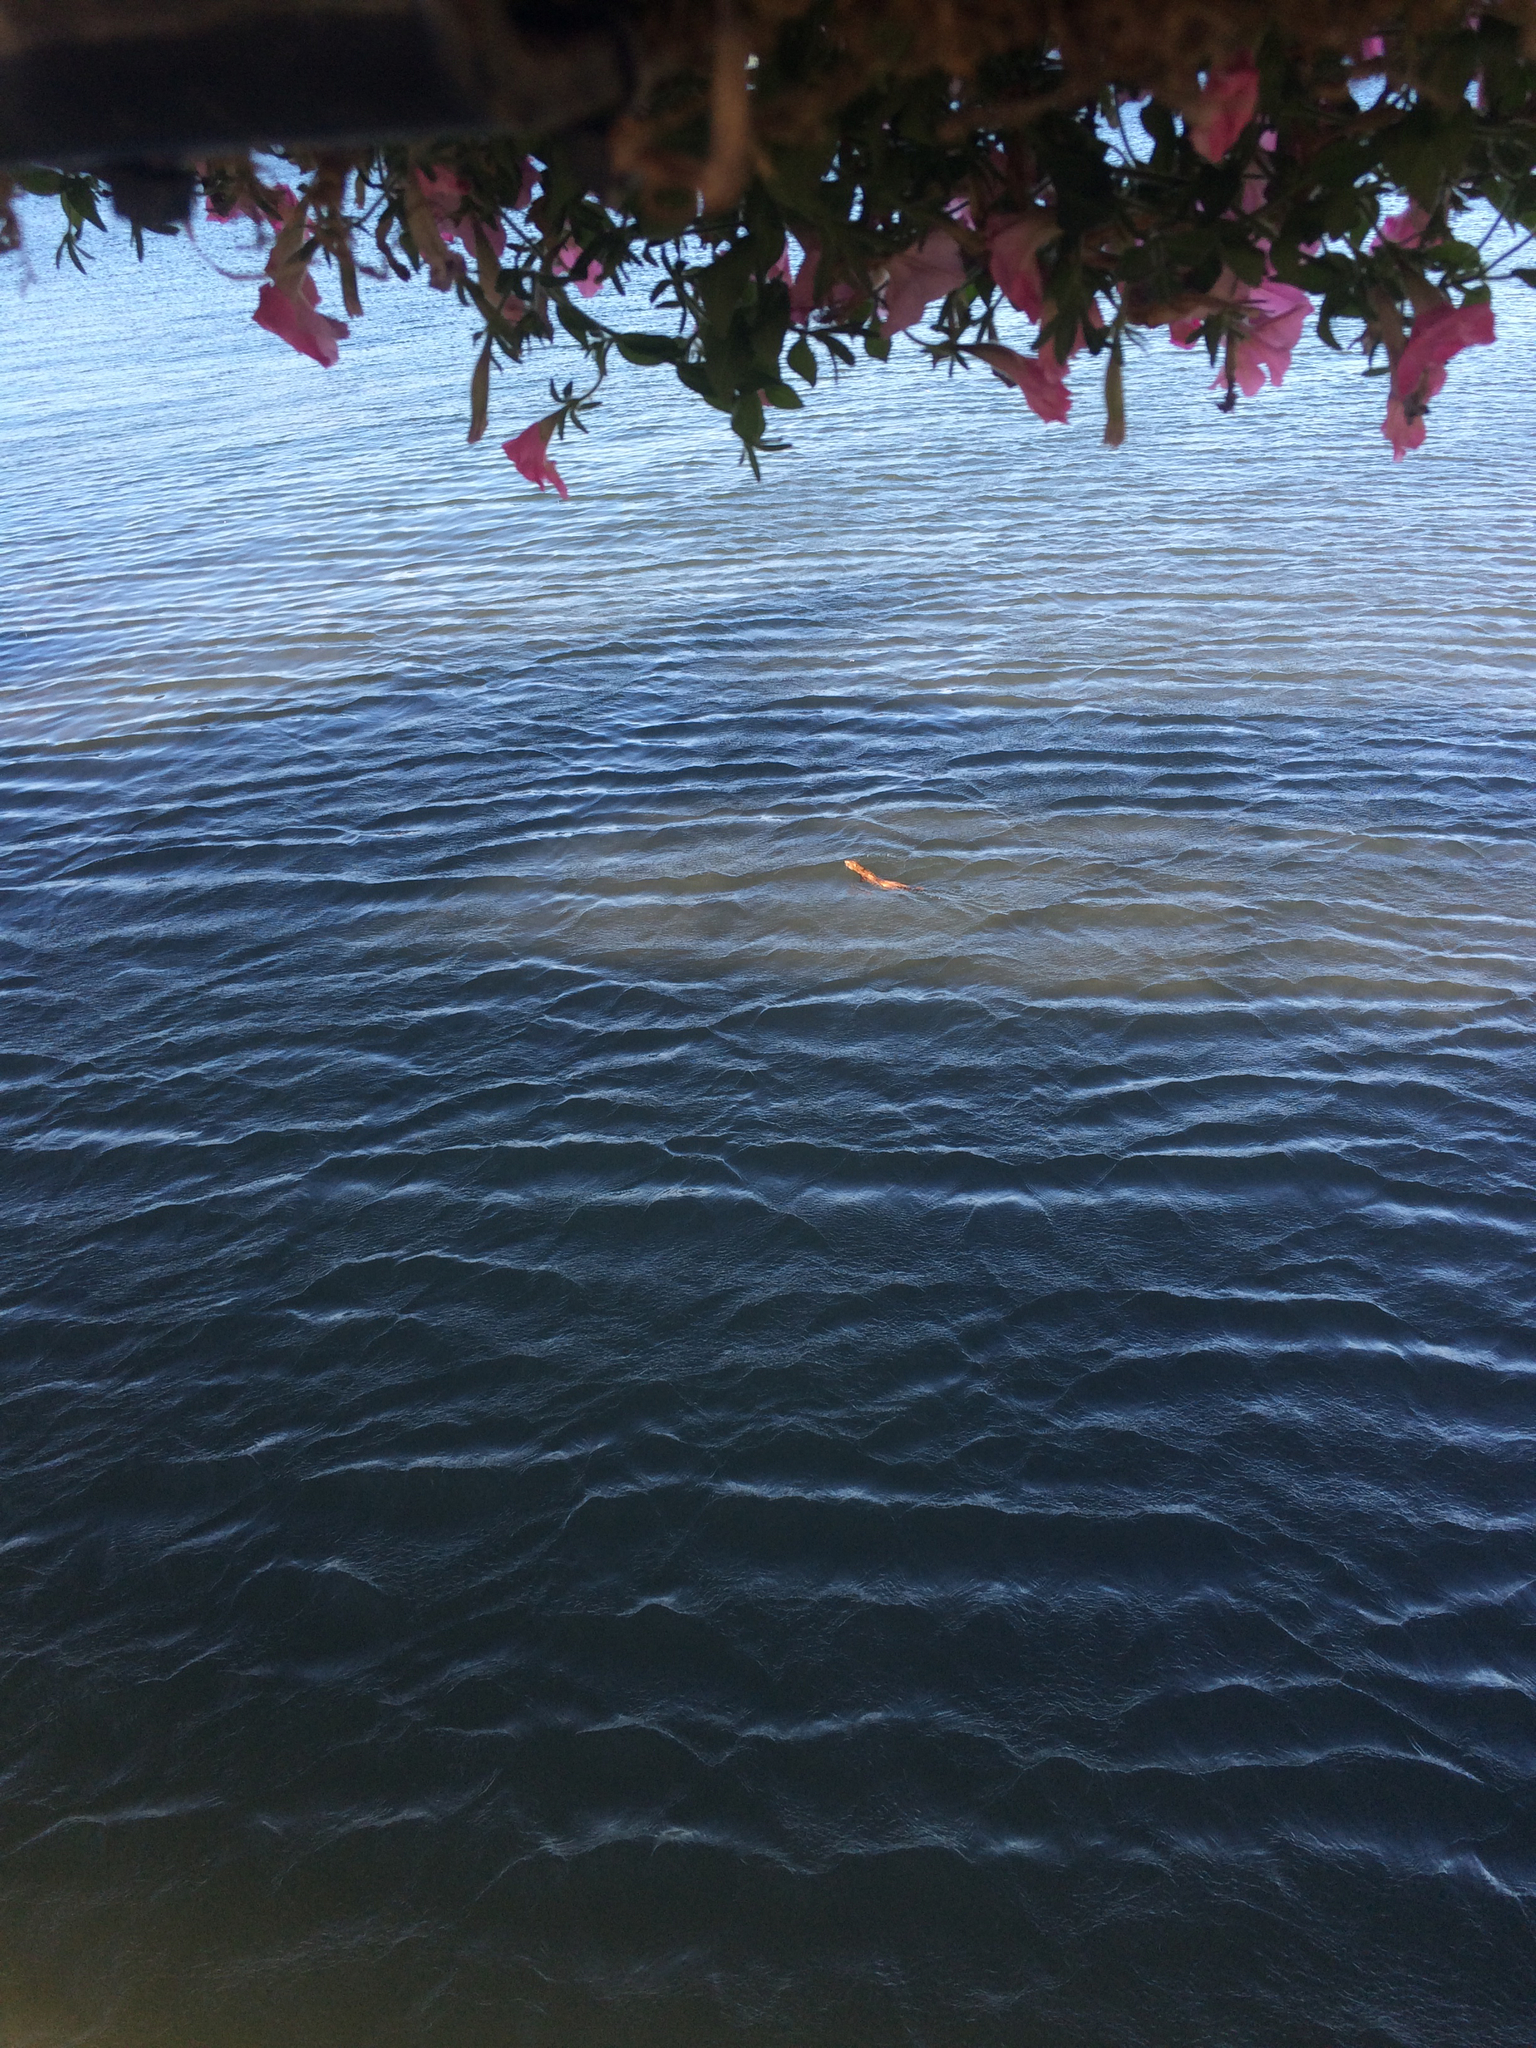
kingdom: Animalia
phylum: Chordata
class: Mammalia
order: Carnivora
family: Mustelidae
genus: Mustela
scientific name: Mustela
